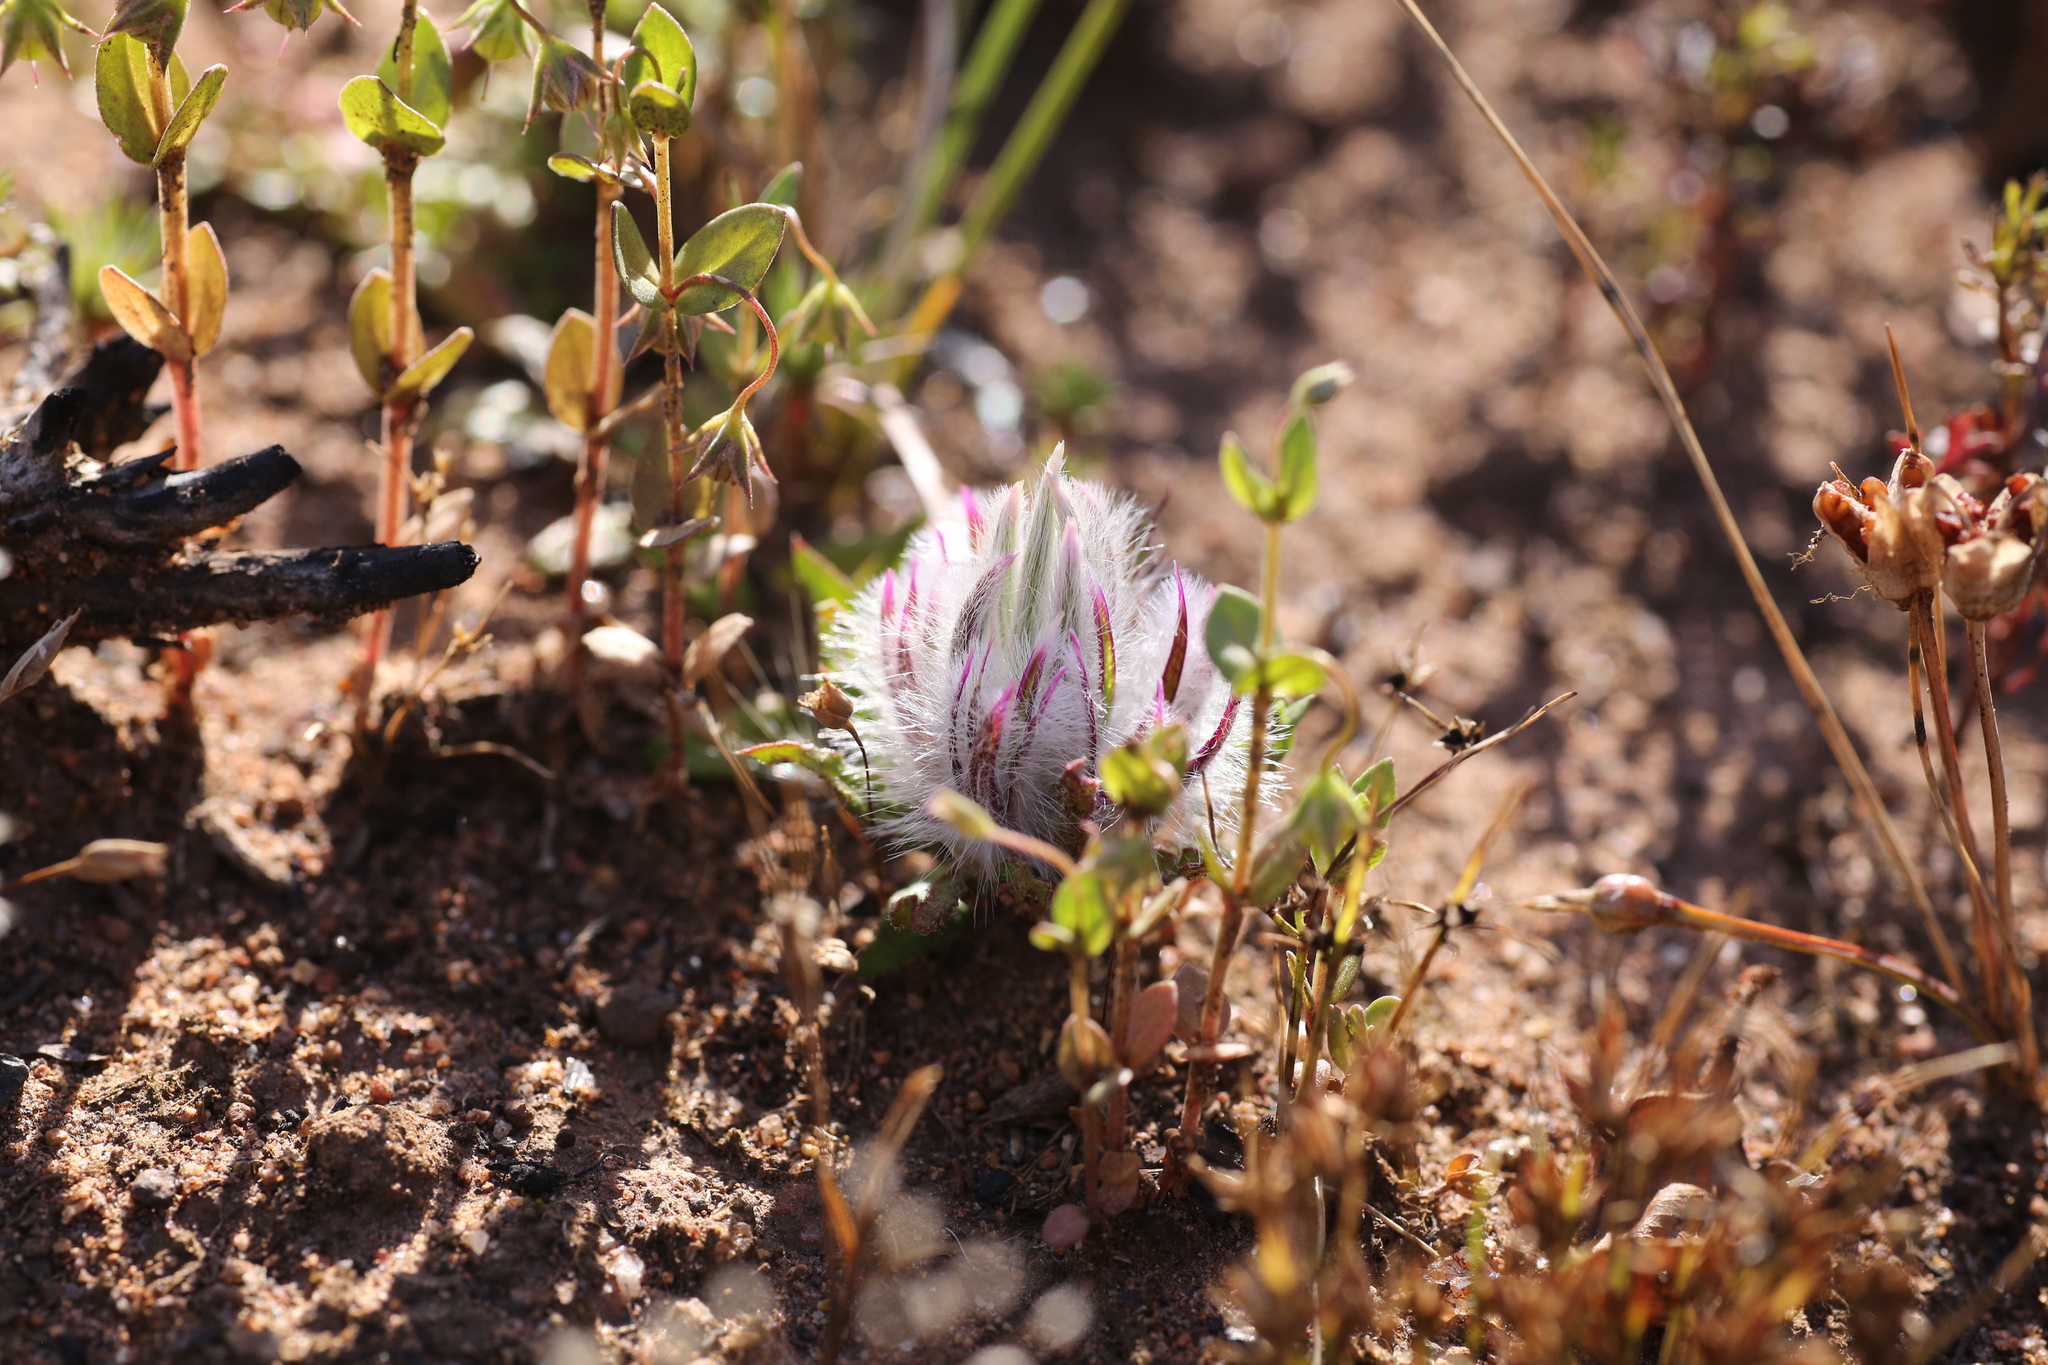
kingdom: Plantae
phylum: Tracheophyta
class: Magnoliopsida
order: Caryophyllales
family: Amaranthaceae
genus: Ptilotus
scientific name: Ptilotus declinatus
